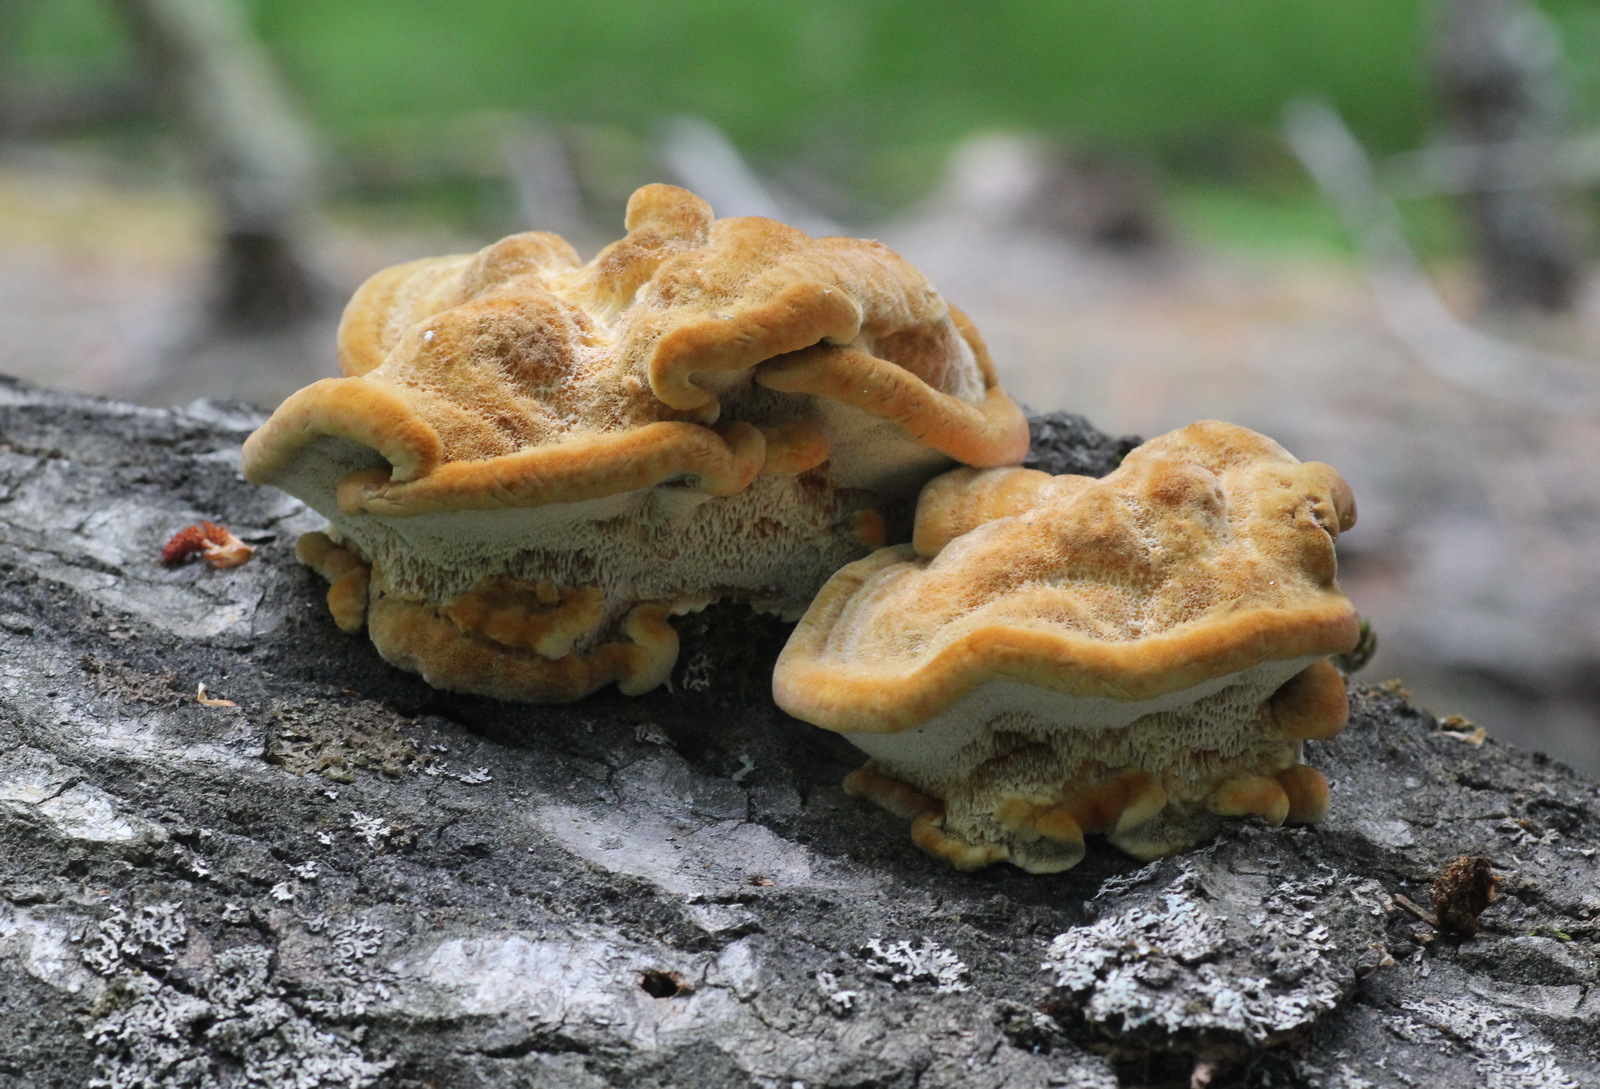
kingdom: Fungi
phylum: Basidiomycota
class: Agaricomycetes
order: Hymenochaetales
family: Hymenochaetaceae
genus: Inocutis
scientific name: Inocutis rheades
